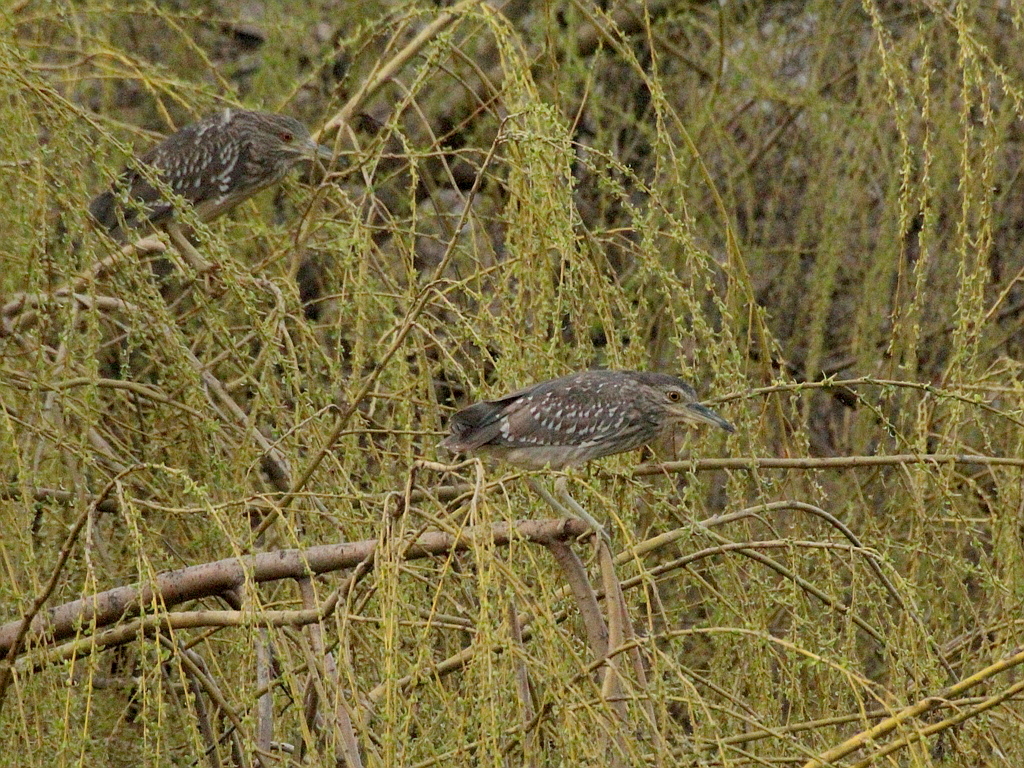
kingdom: Animalia
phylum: Chordata
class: Aves
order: Pelecaniformes
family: Ardeidae
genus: Nycticorax
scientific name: Nycticorax nycticorax
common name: Black-crowned night heron
